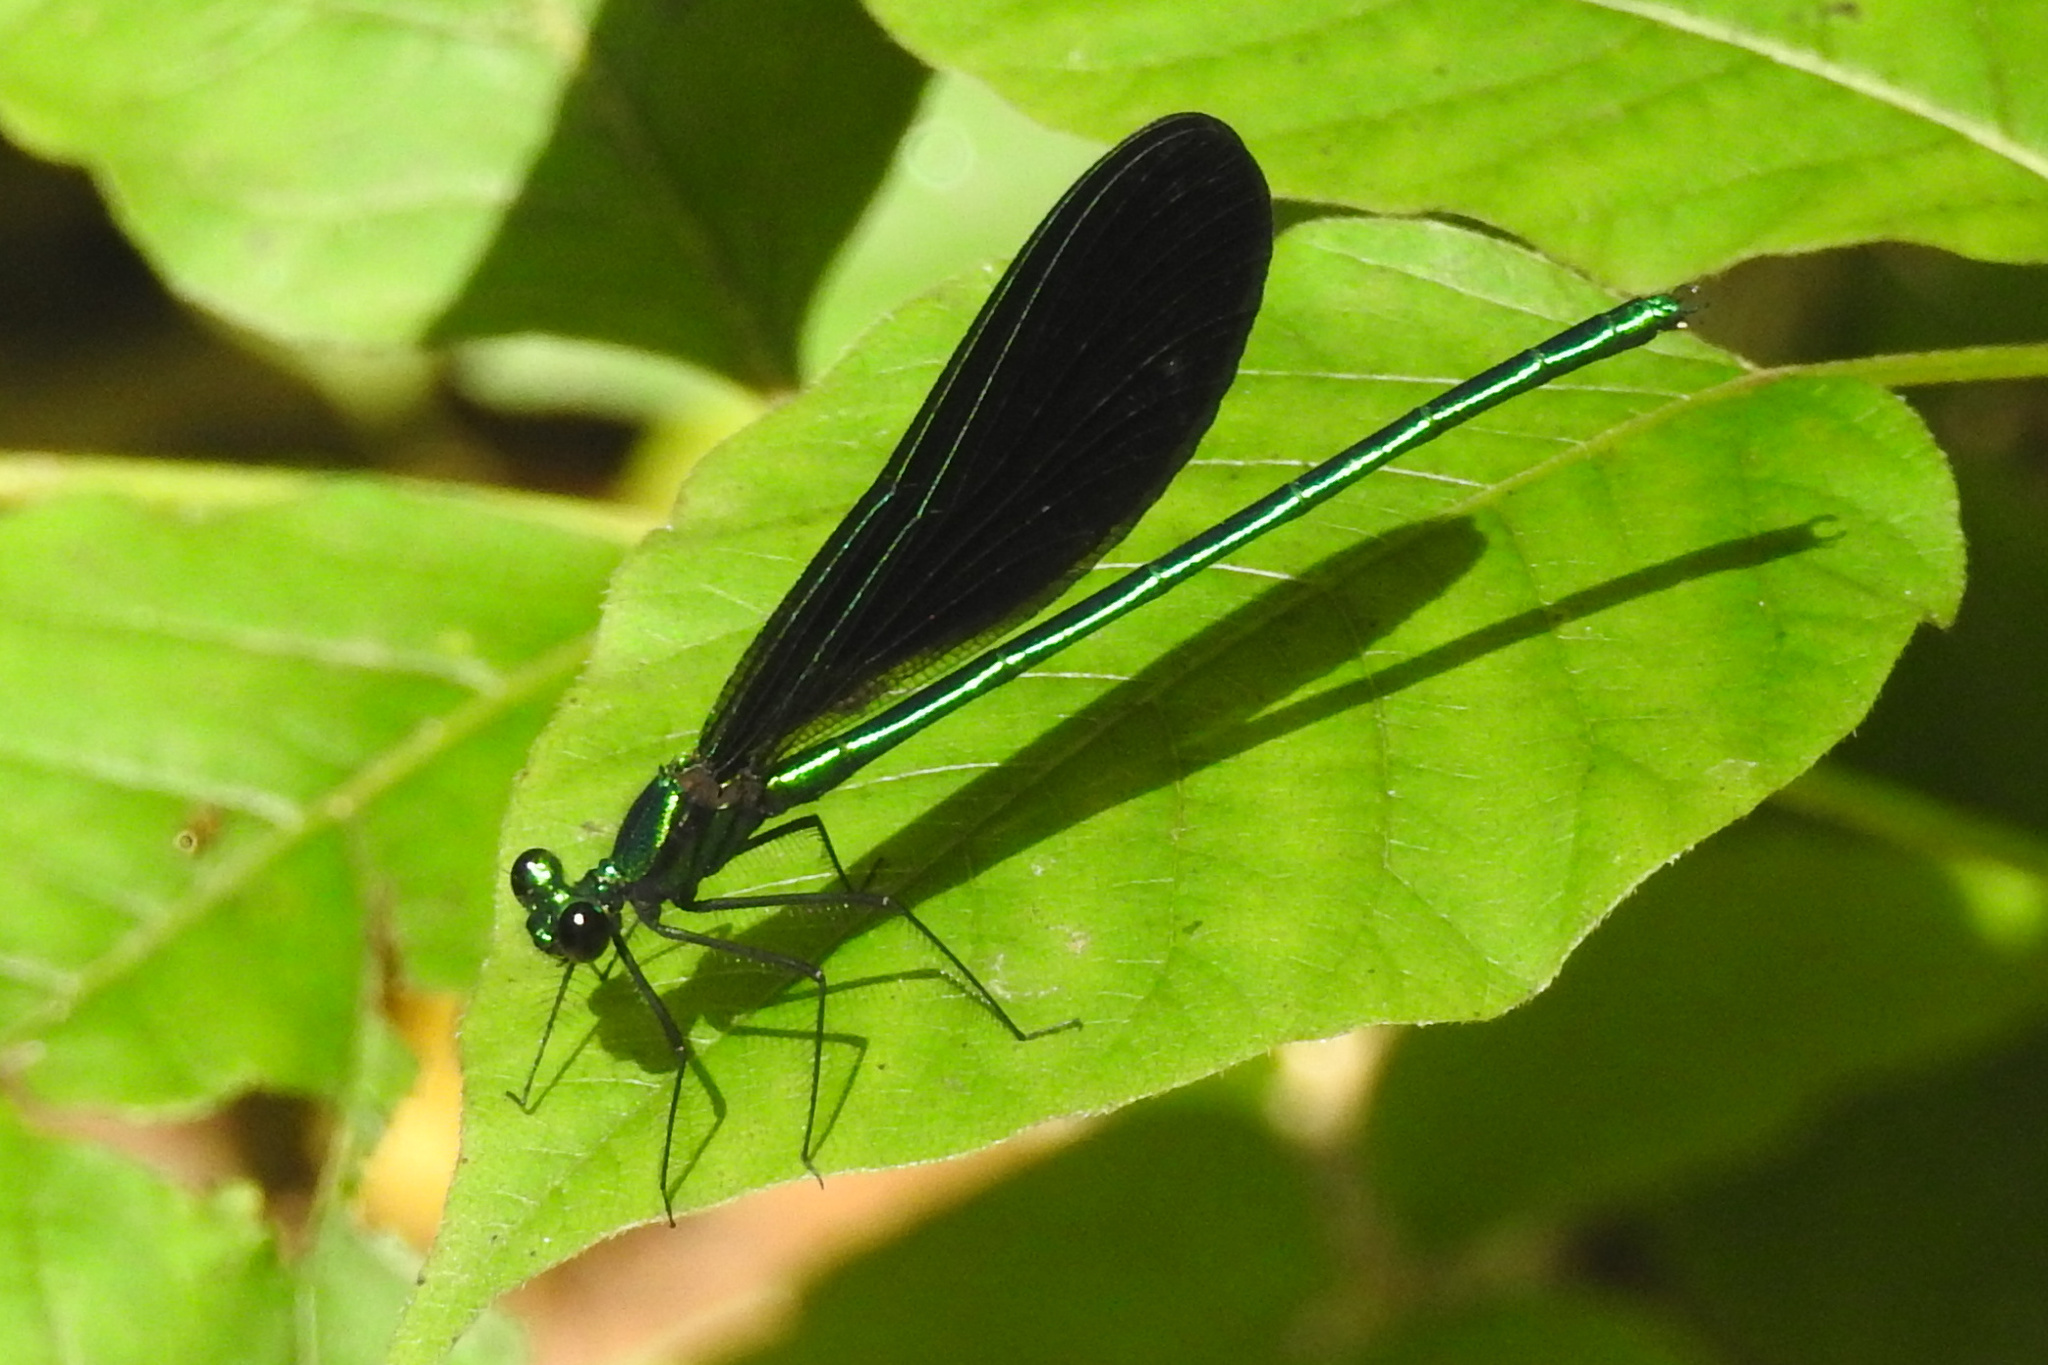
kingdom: Animalia
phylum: Arthropoda
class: Insecta
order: Odonata
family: Calopterygidae
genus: Calopteryx
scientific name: Calopteryx maculata
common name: Ebony jewelwing
